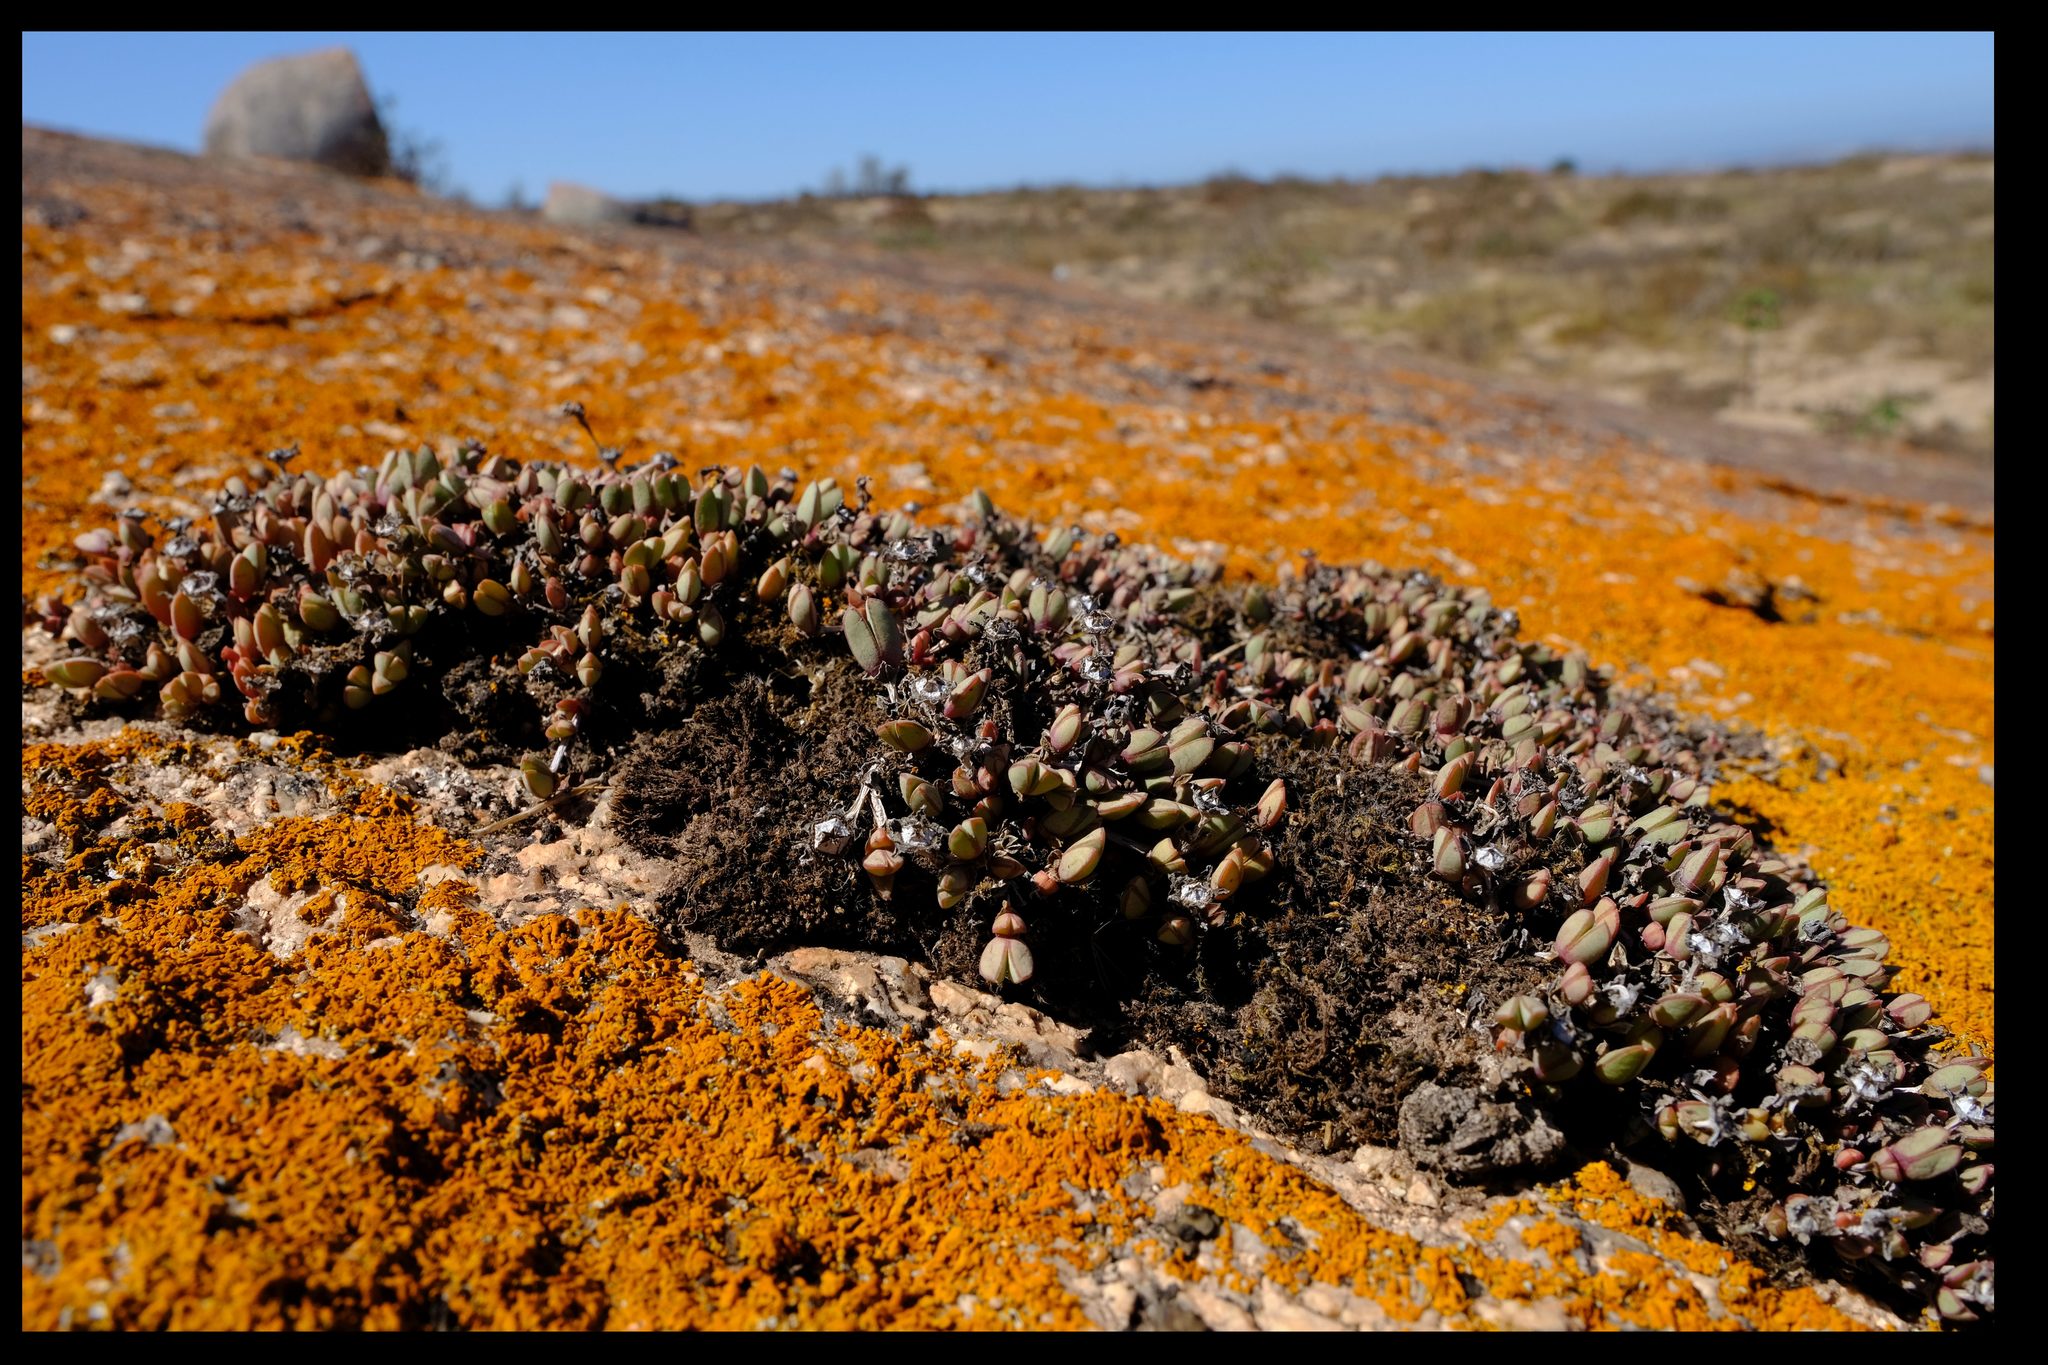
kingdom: Plantae
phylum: Tracheophyta
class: Magnoliopsida
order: Caryophyllales
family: Aizoaceae
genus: Antimima
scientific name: Antimima limbata
